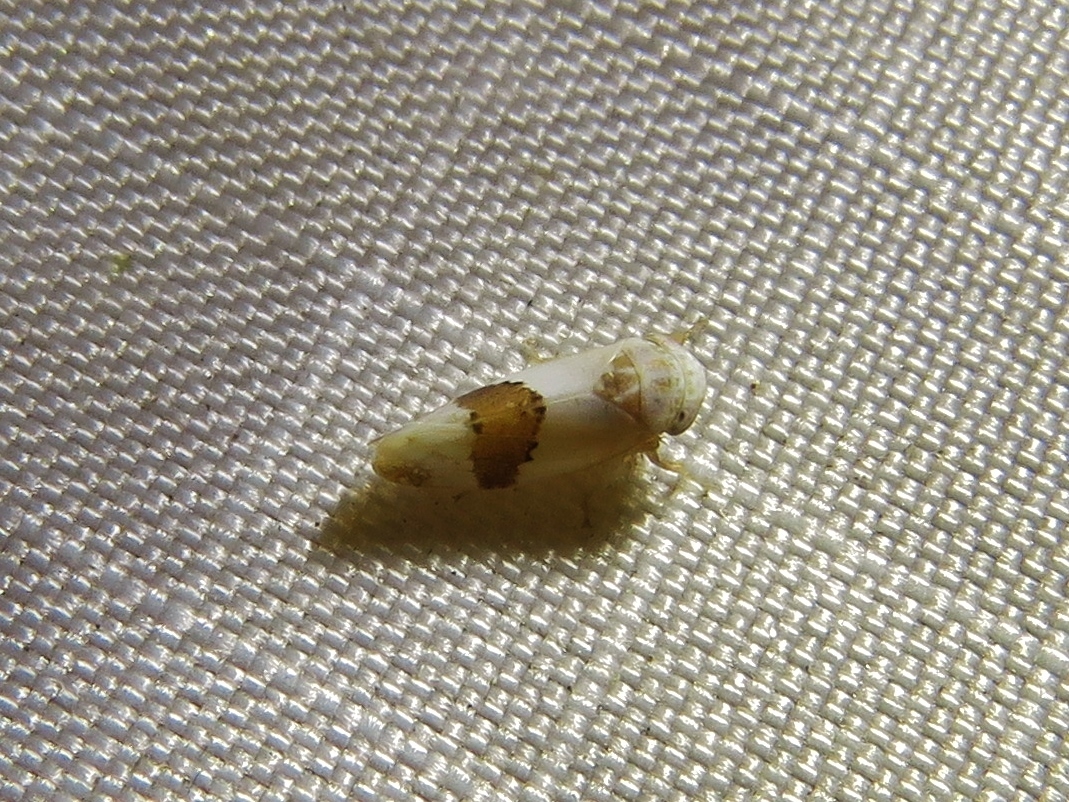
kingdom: Animalia
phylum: Arthropoda
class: Insecta
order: Hemiptera
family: Cicadellidae
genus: Norvellina
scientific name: Norvellina seminuda
